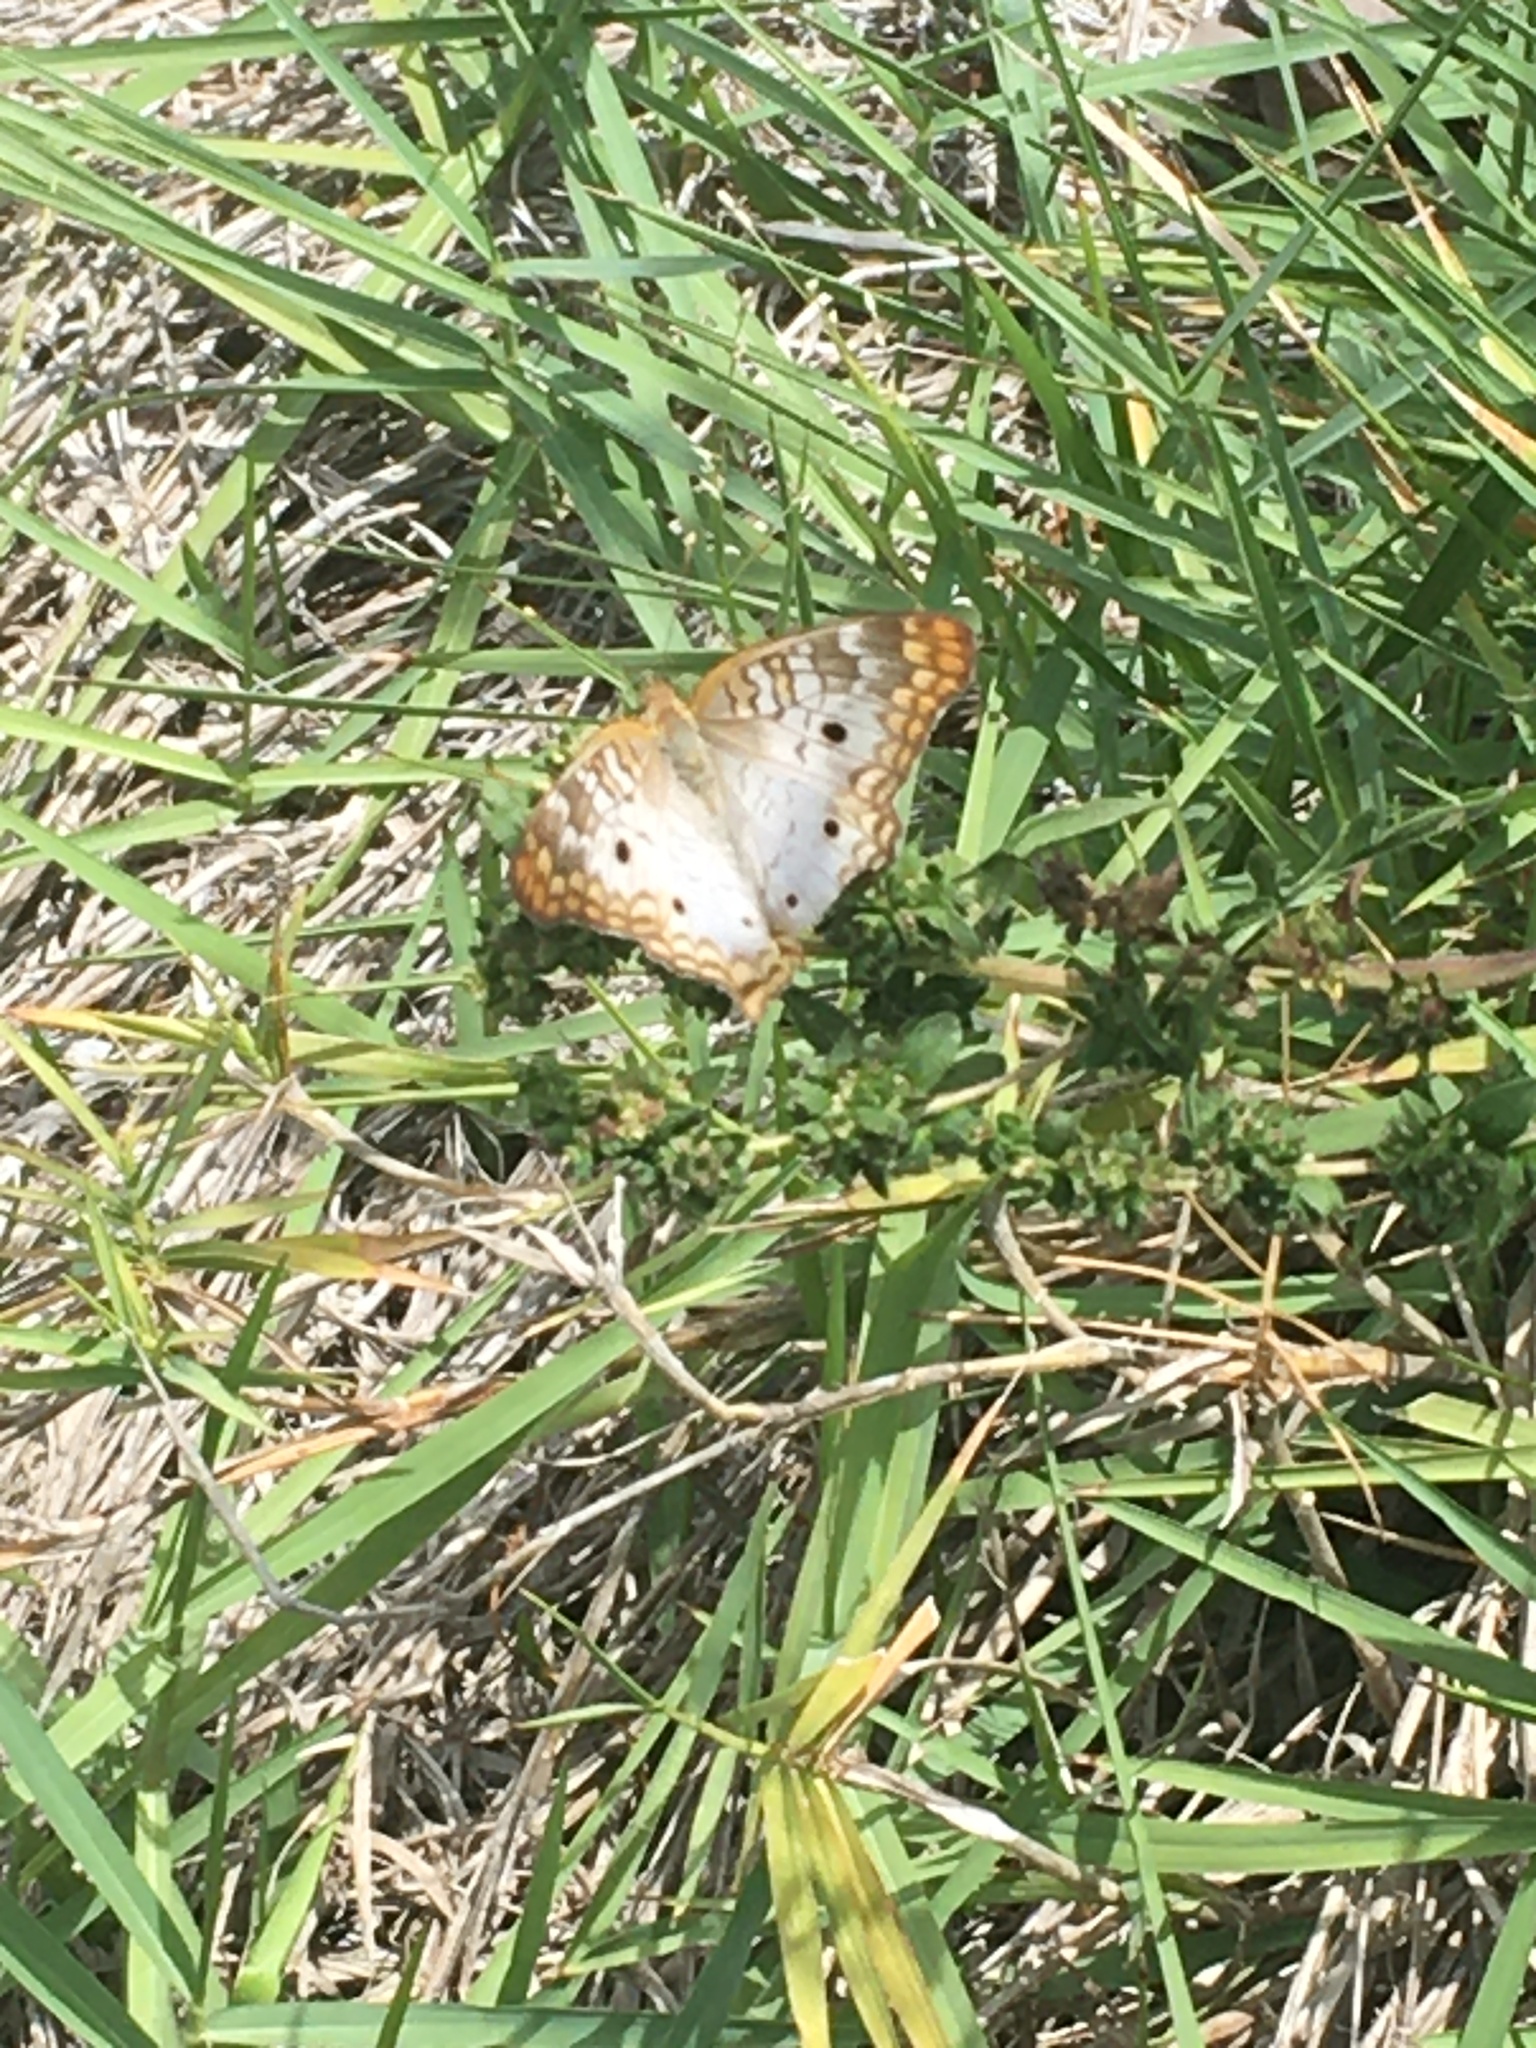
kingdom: Animalia
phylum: Arthropoda
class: Insecta
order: Lepidoptera
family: Nymphalidae
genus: Anartia
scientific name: Anartia jatrophae
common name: White peacock
